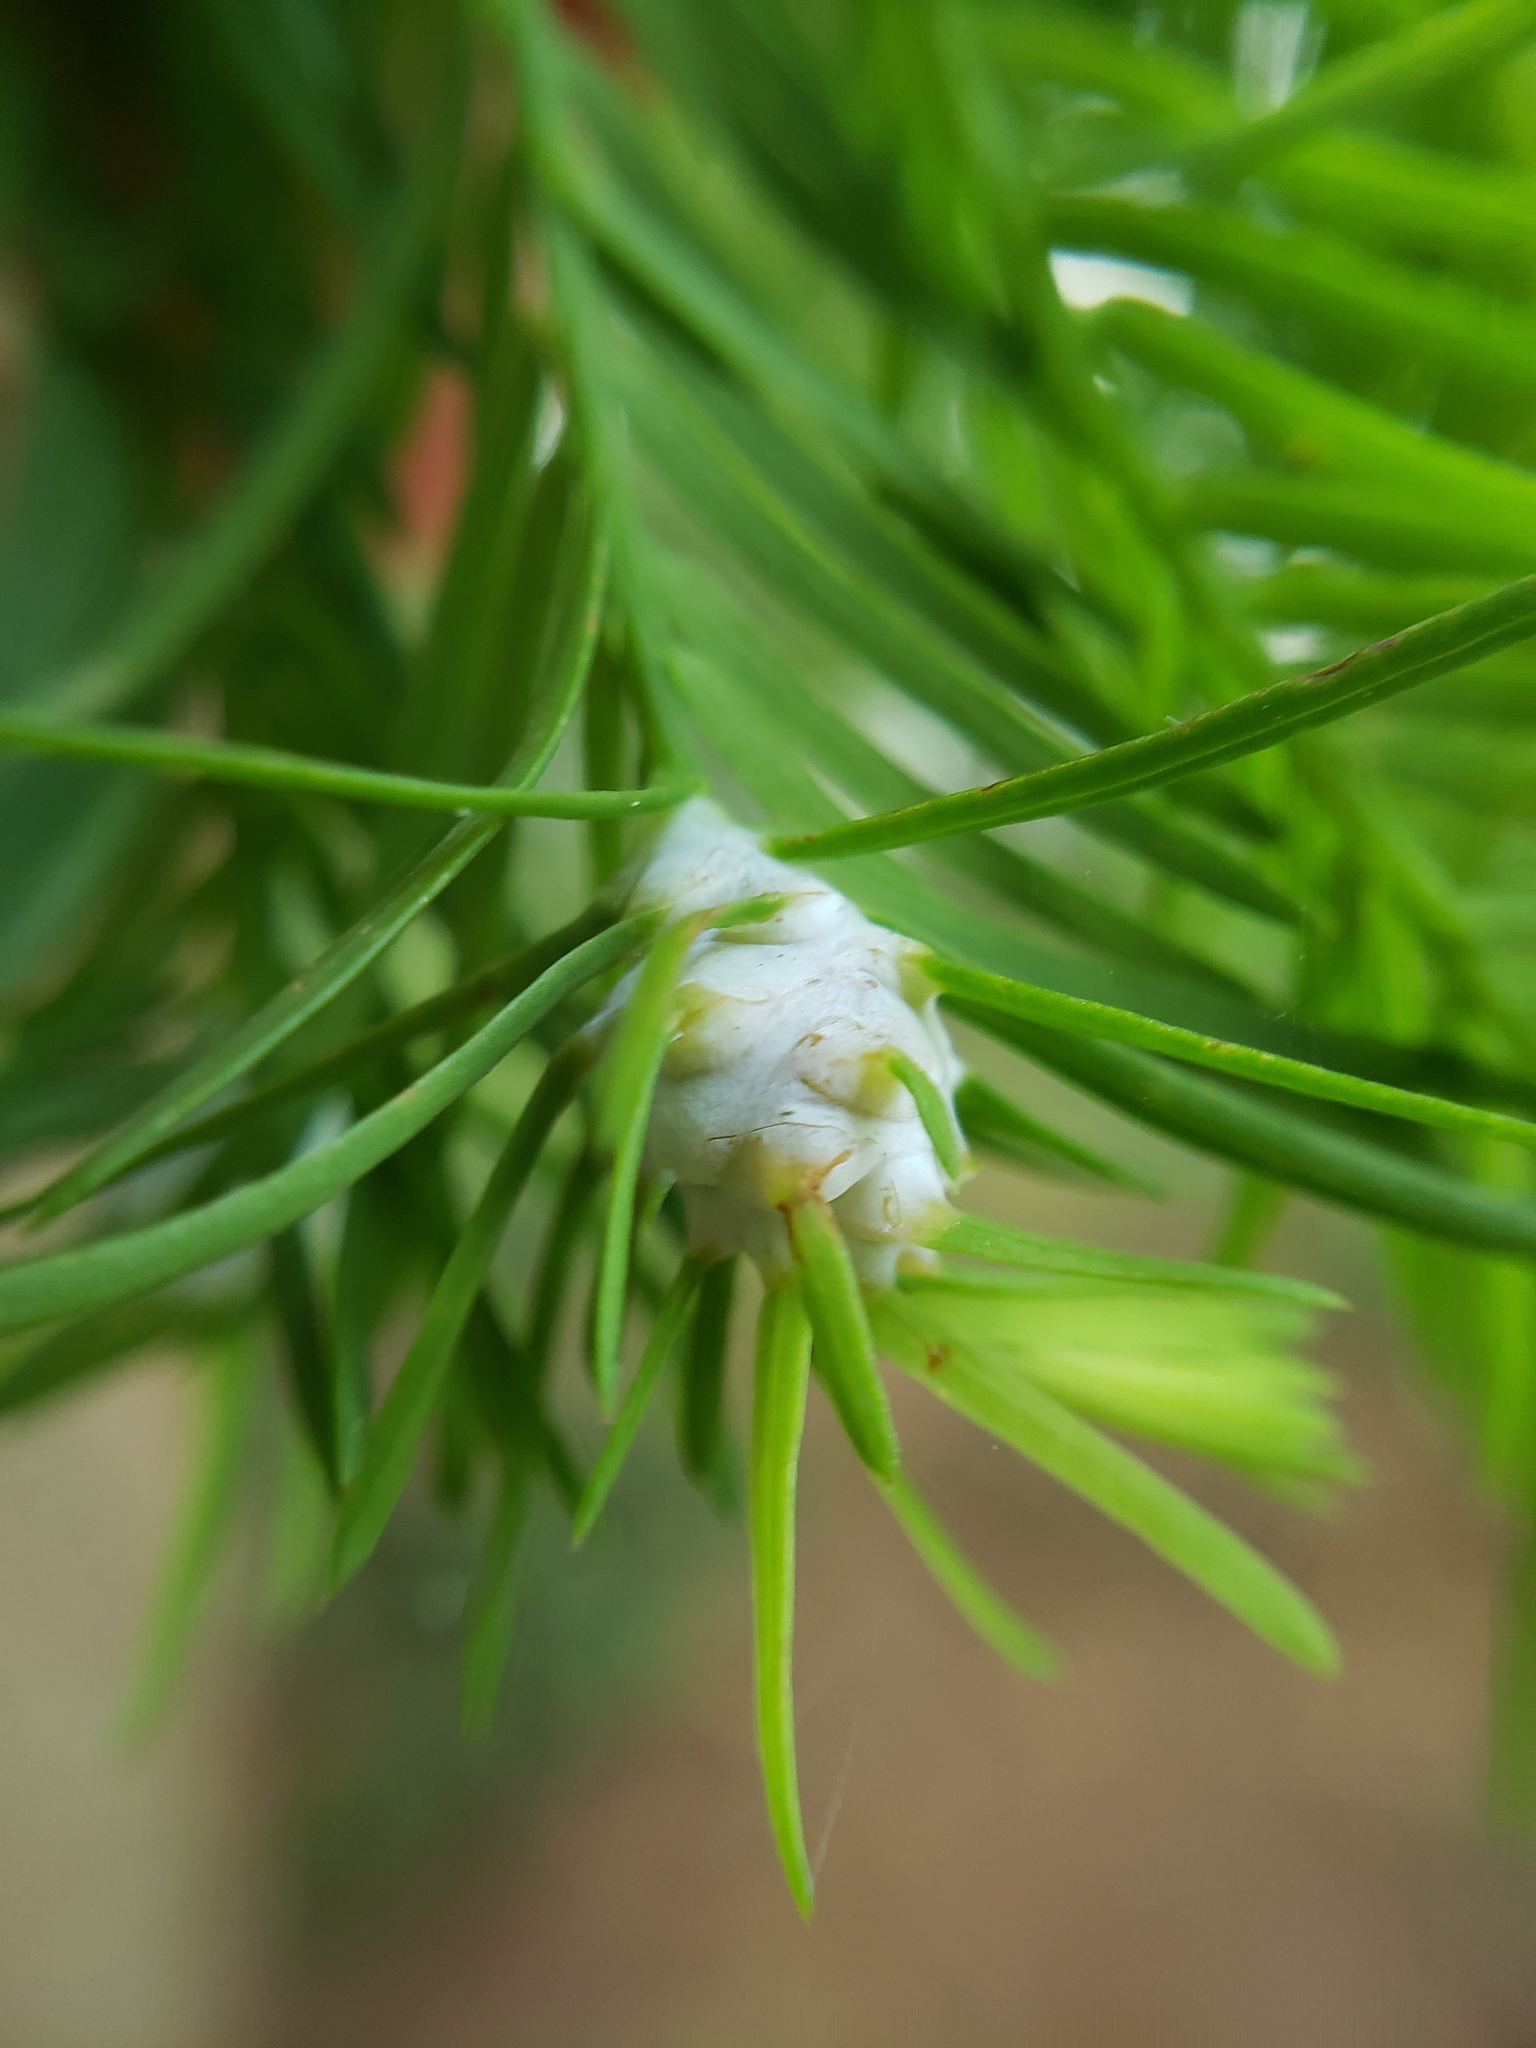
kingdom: Animalia
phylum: Arthropoda
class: Insecta
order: Diptera
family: Cecidomyiidae
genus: Taxodiomyia
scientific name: Taxodiomyia cupressiananassa
